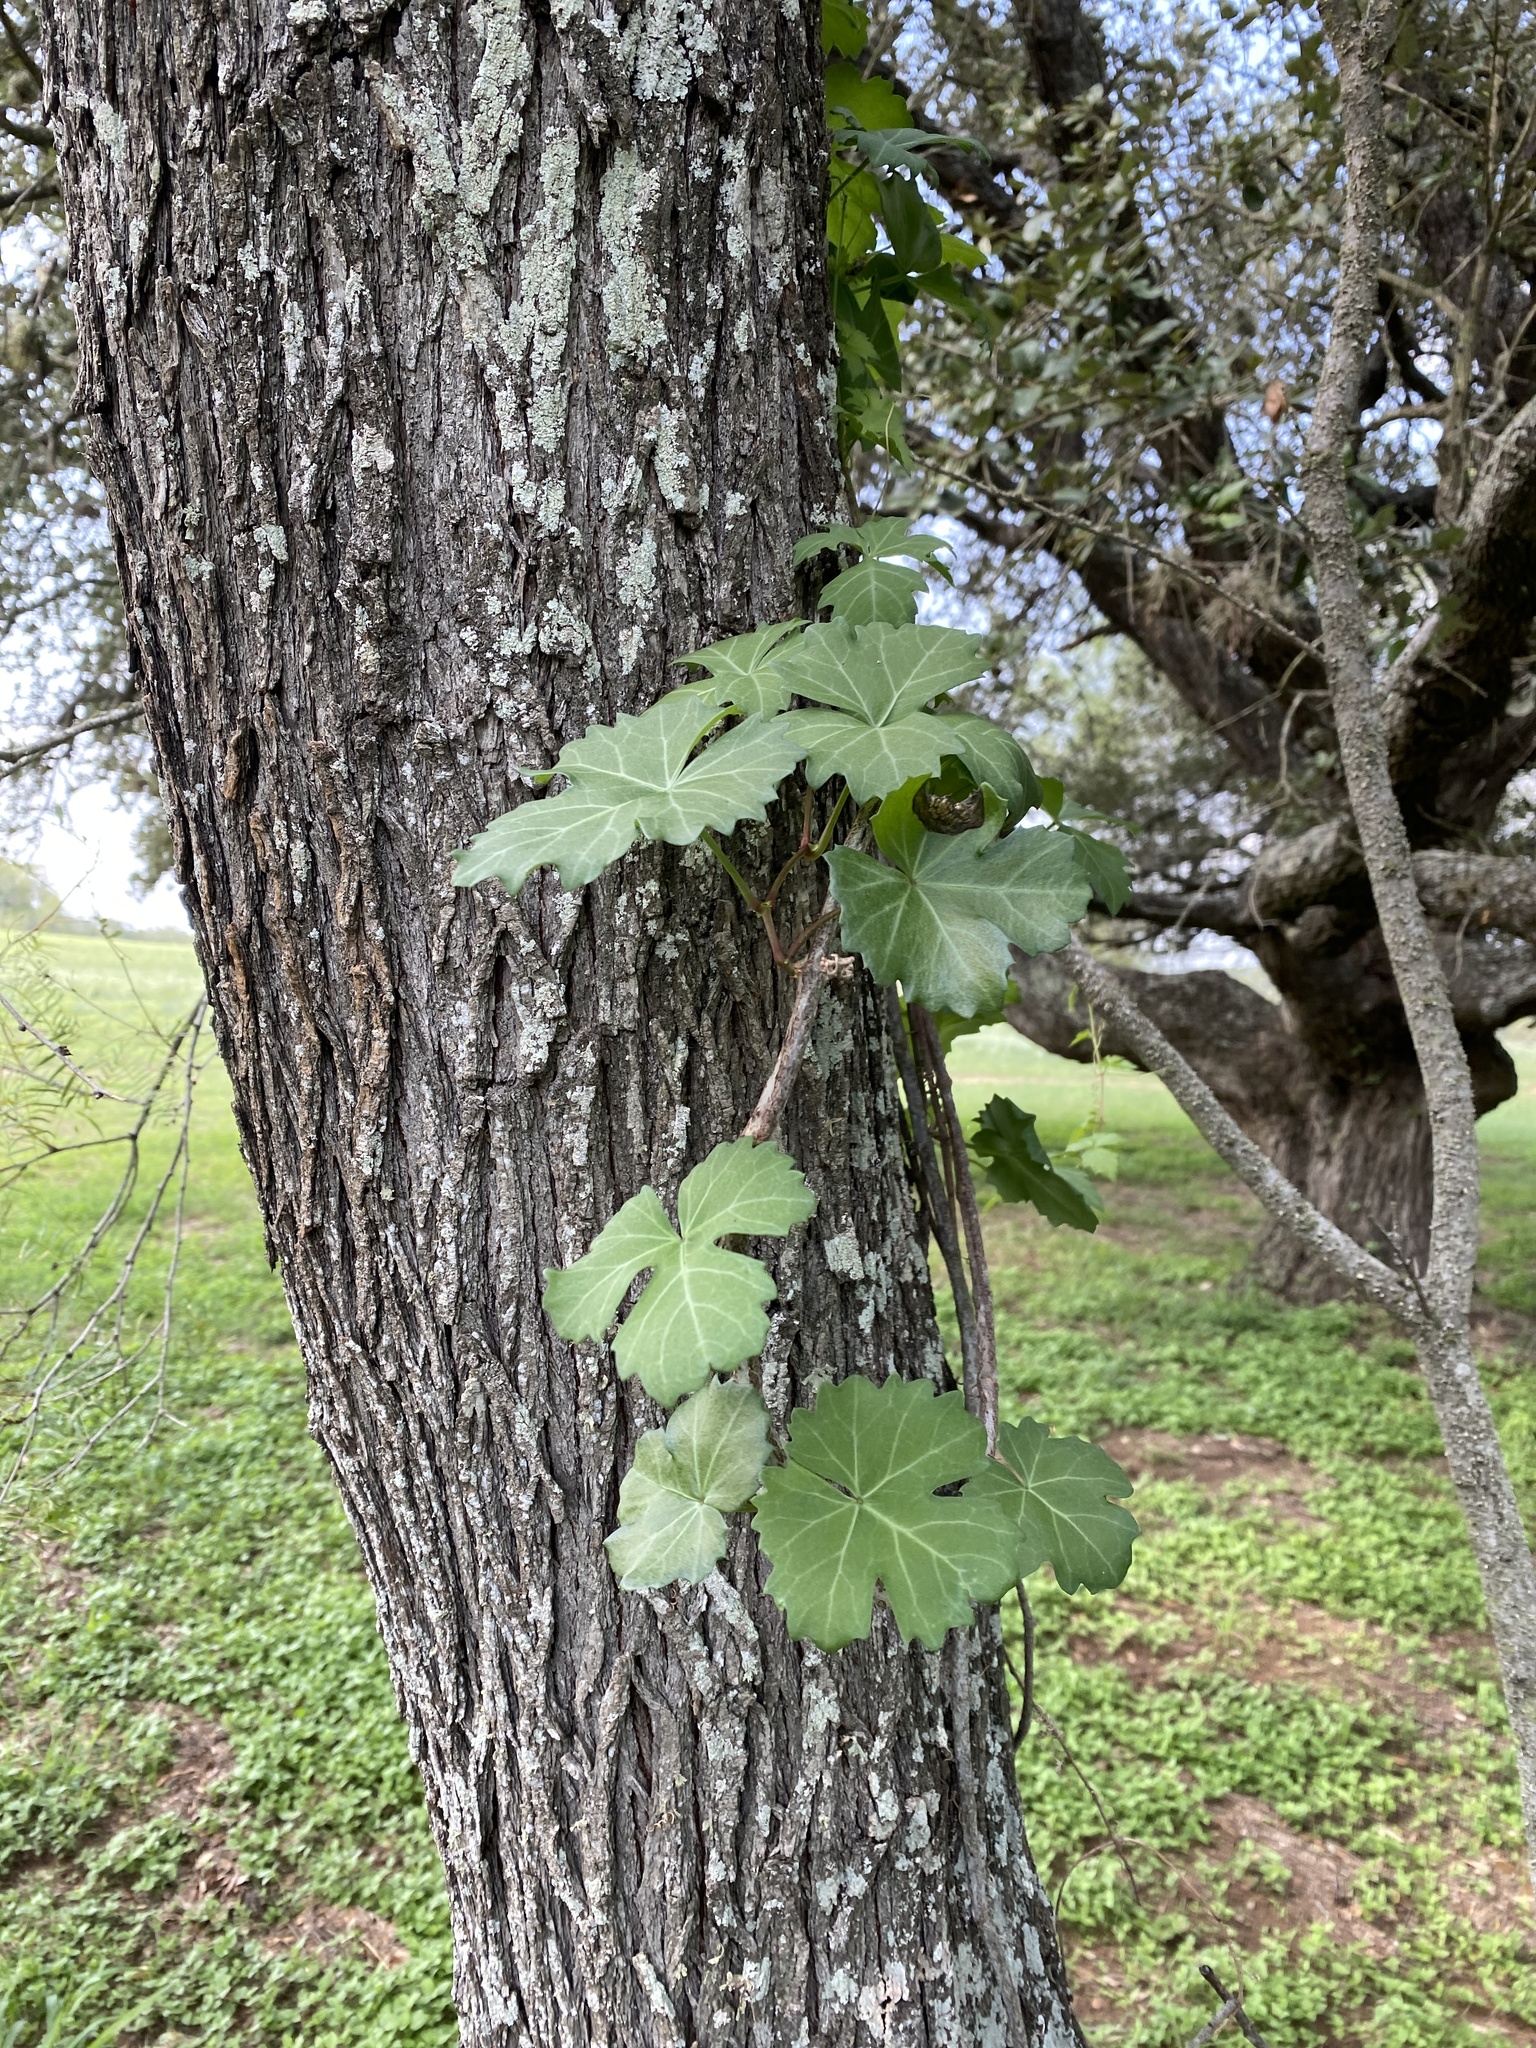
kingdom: Plantae
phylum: Tracheophyta
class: Magnoliopsida
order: Vitales
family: Vitaceae
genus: Cissus
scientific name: Cissus trifoliata
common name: Vine-sorrel
